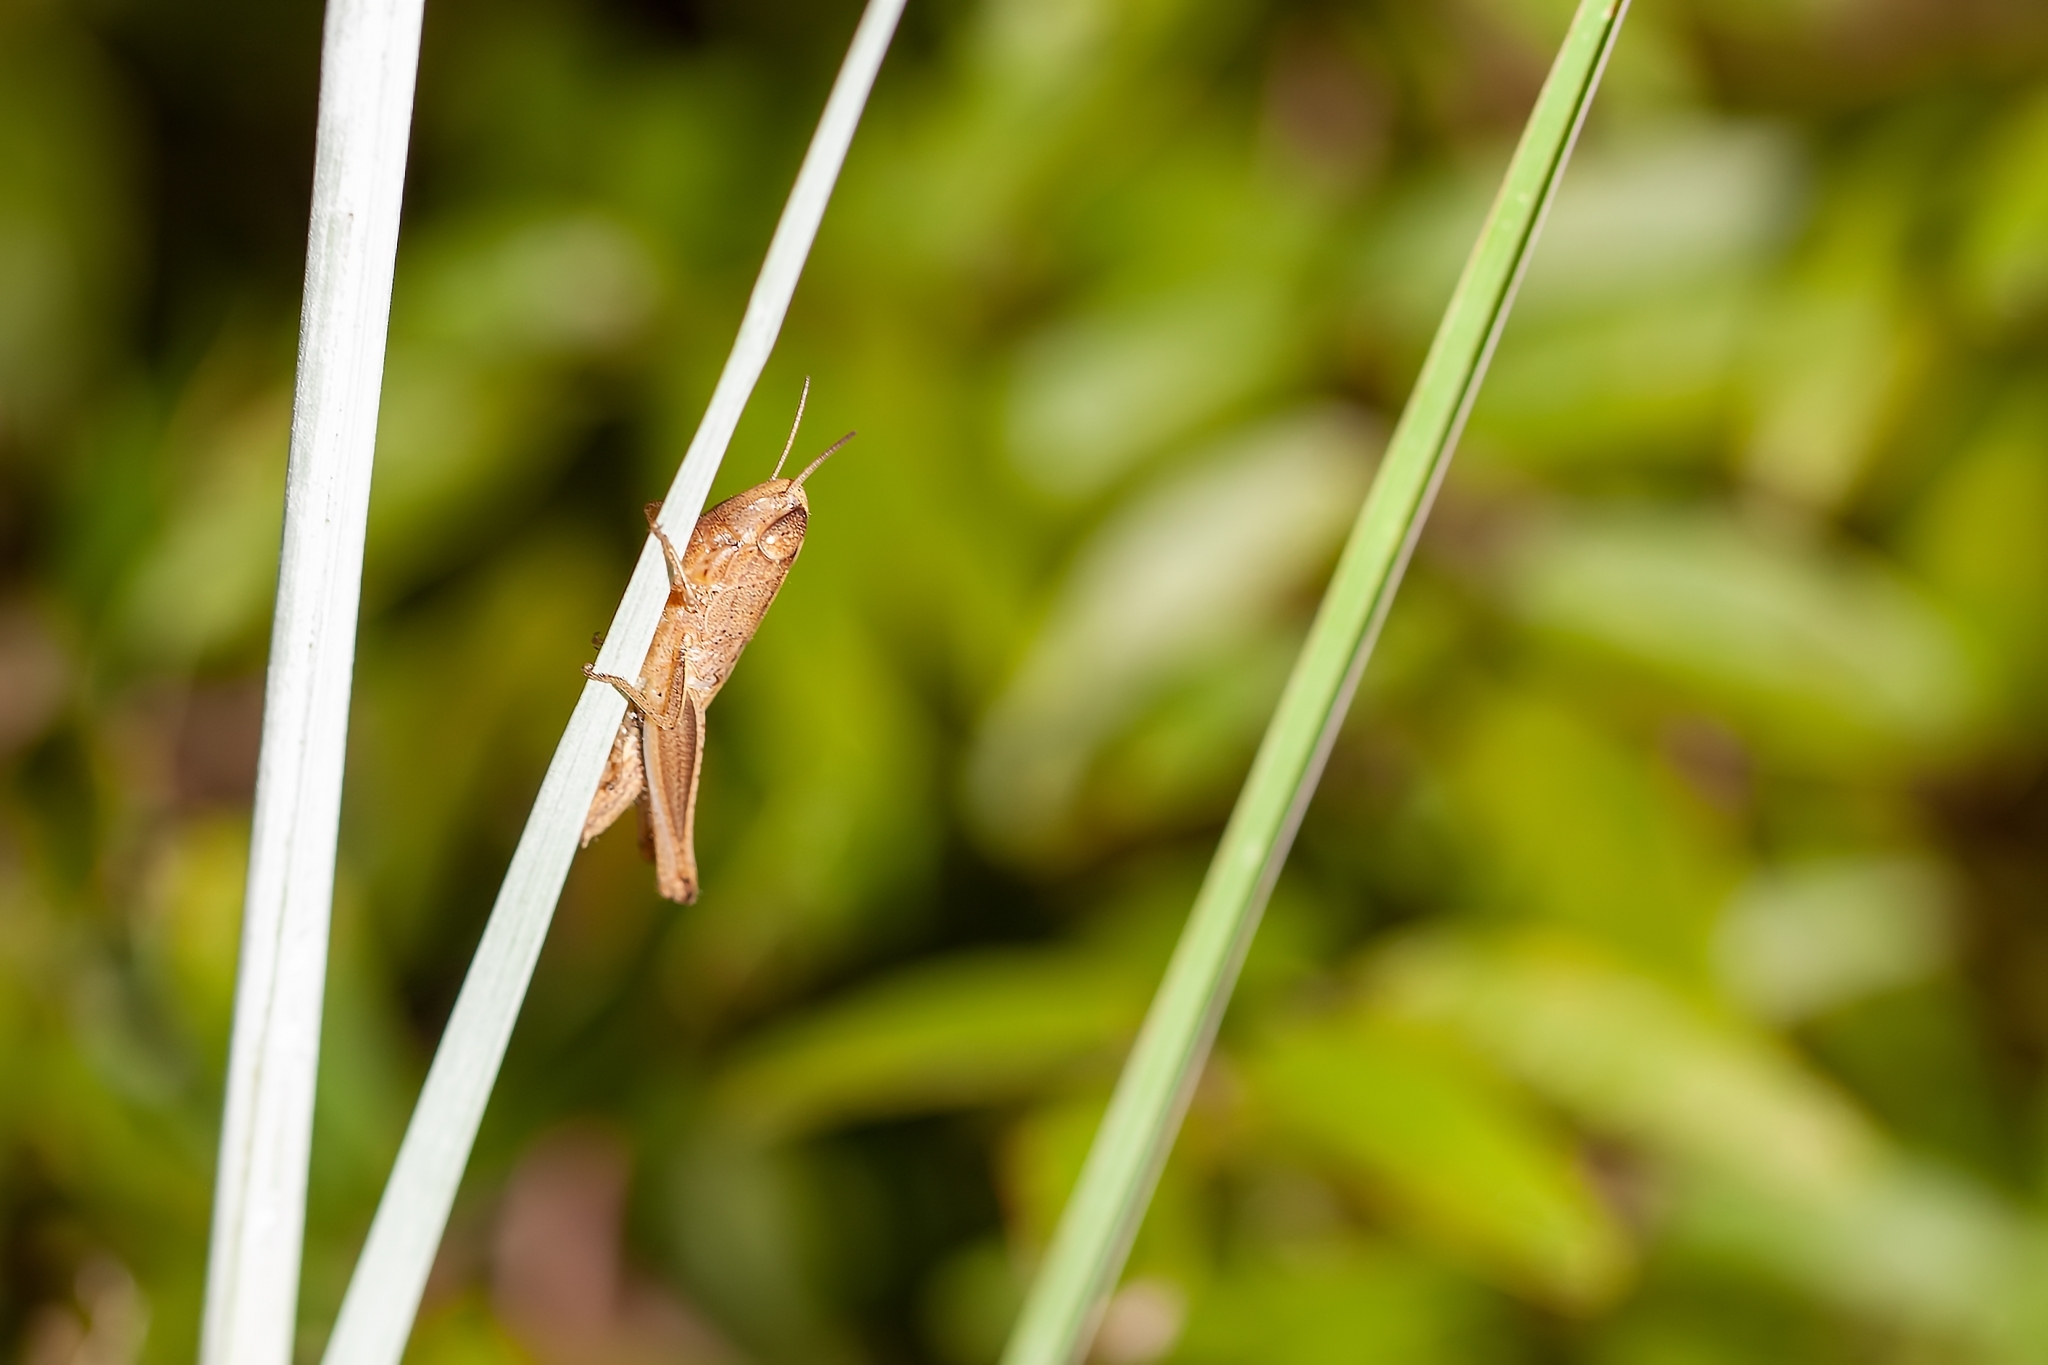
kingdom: Animalia
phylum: Arthropoda
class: Insecta
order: Orthoptera
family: Acrididae
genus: Amblytropidia
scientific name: Amblytropidia mysteca
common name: Brown winter grasshopper
